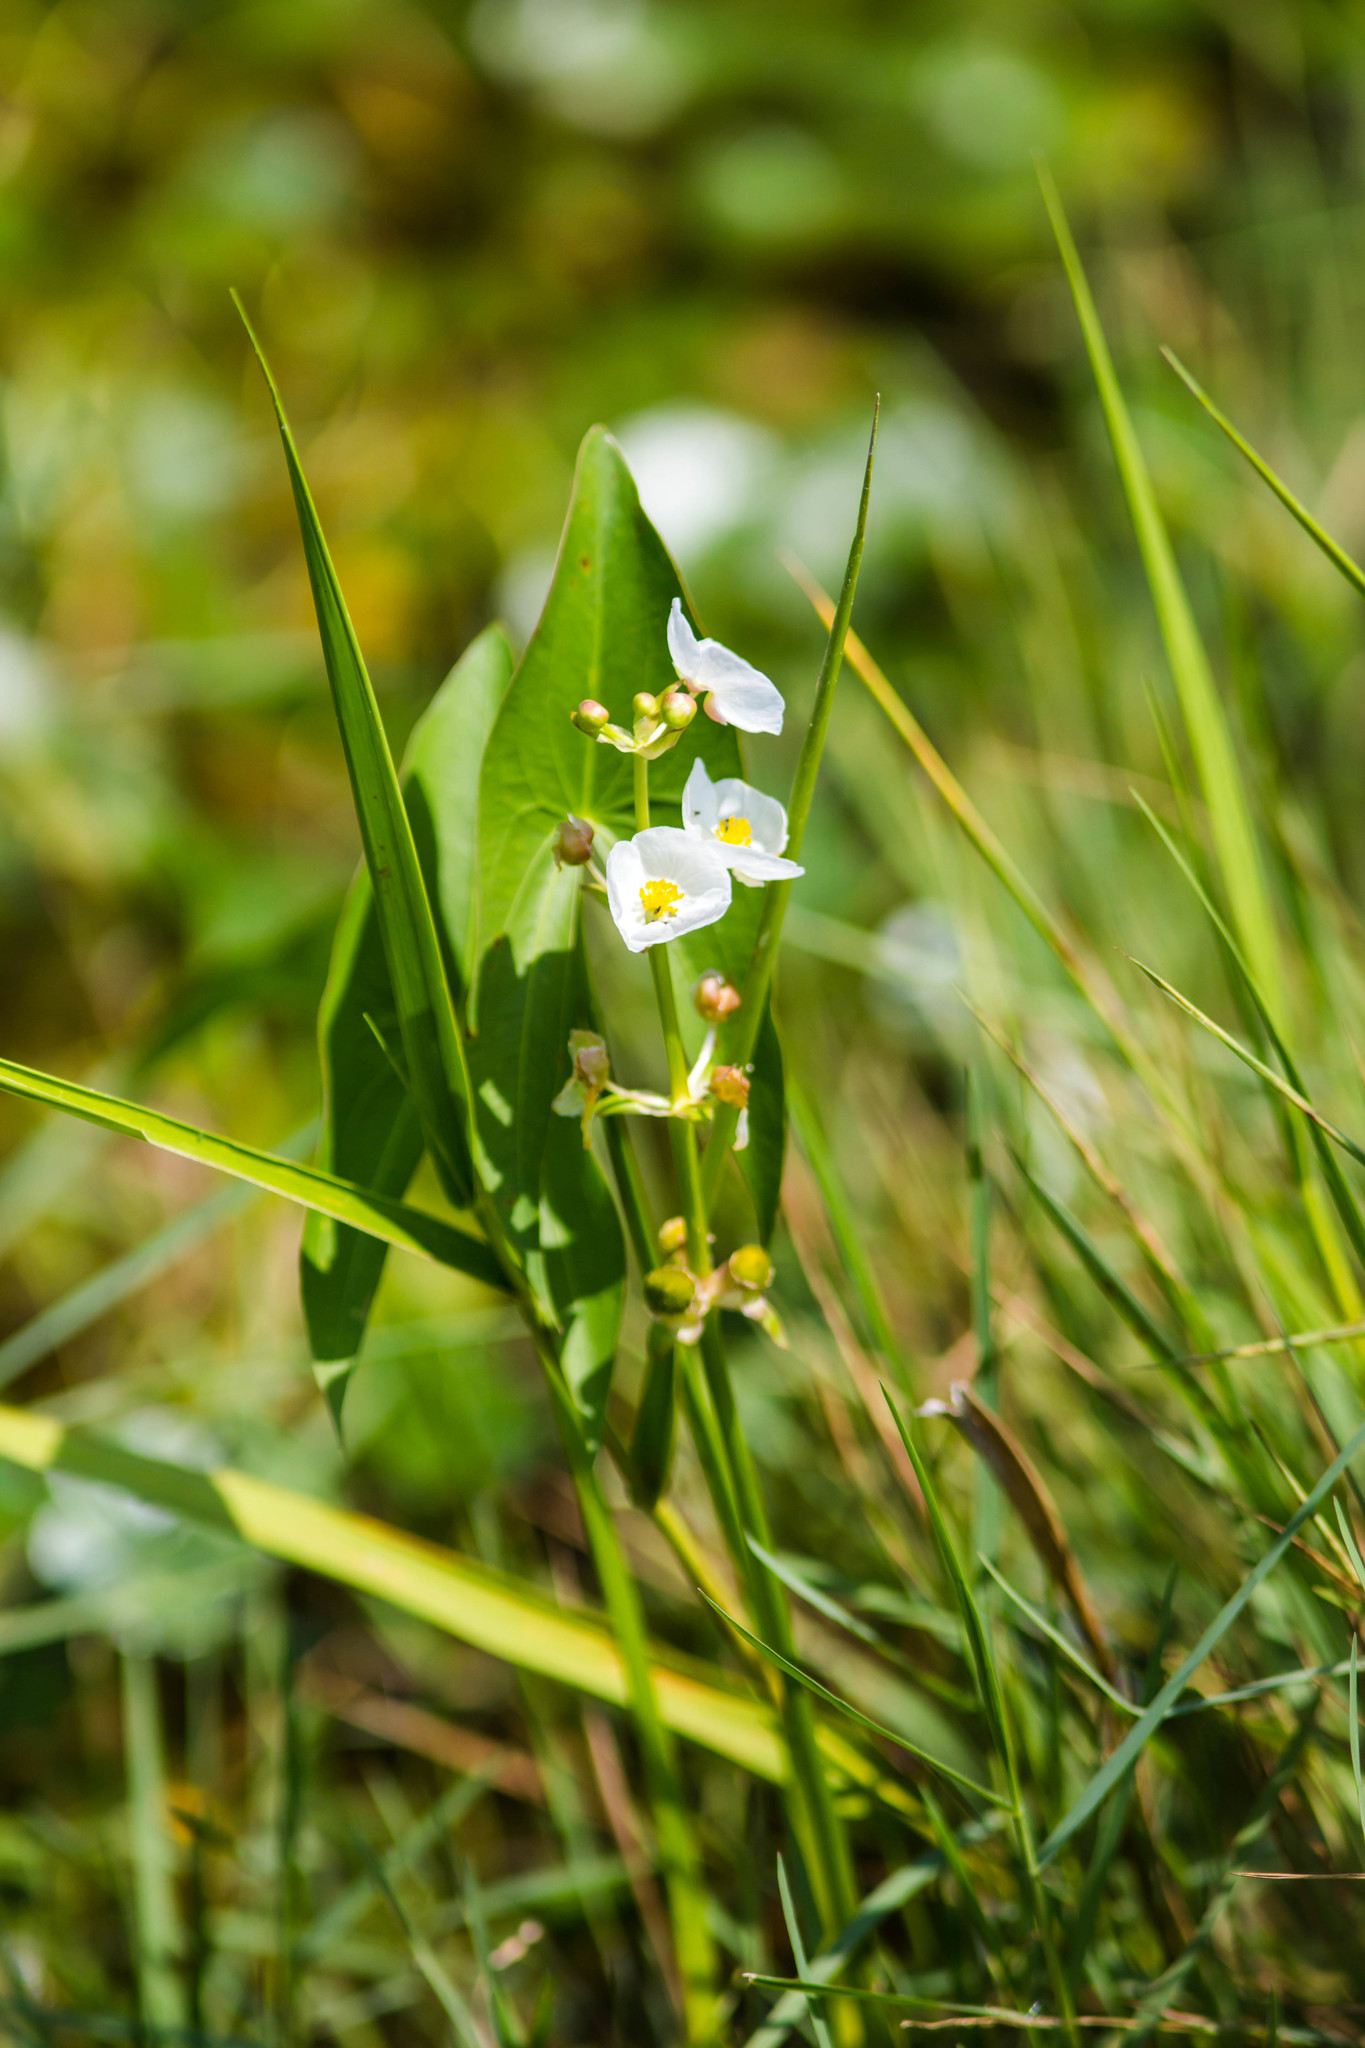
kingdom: Plantae
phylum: Tracheophyta
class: Liliopsida
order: Alismatales
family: Alismataceae
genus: Sagittaria
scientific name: Sagittaria australis
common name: Appalachian arrowhead
